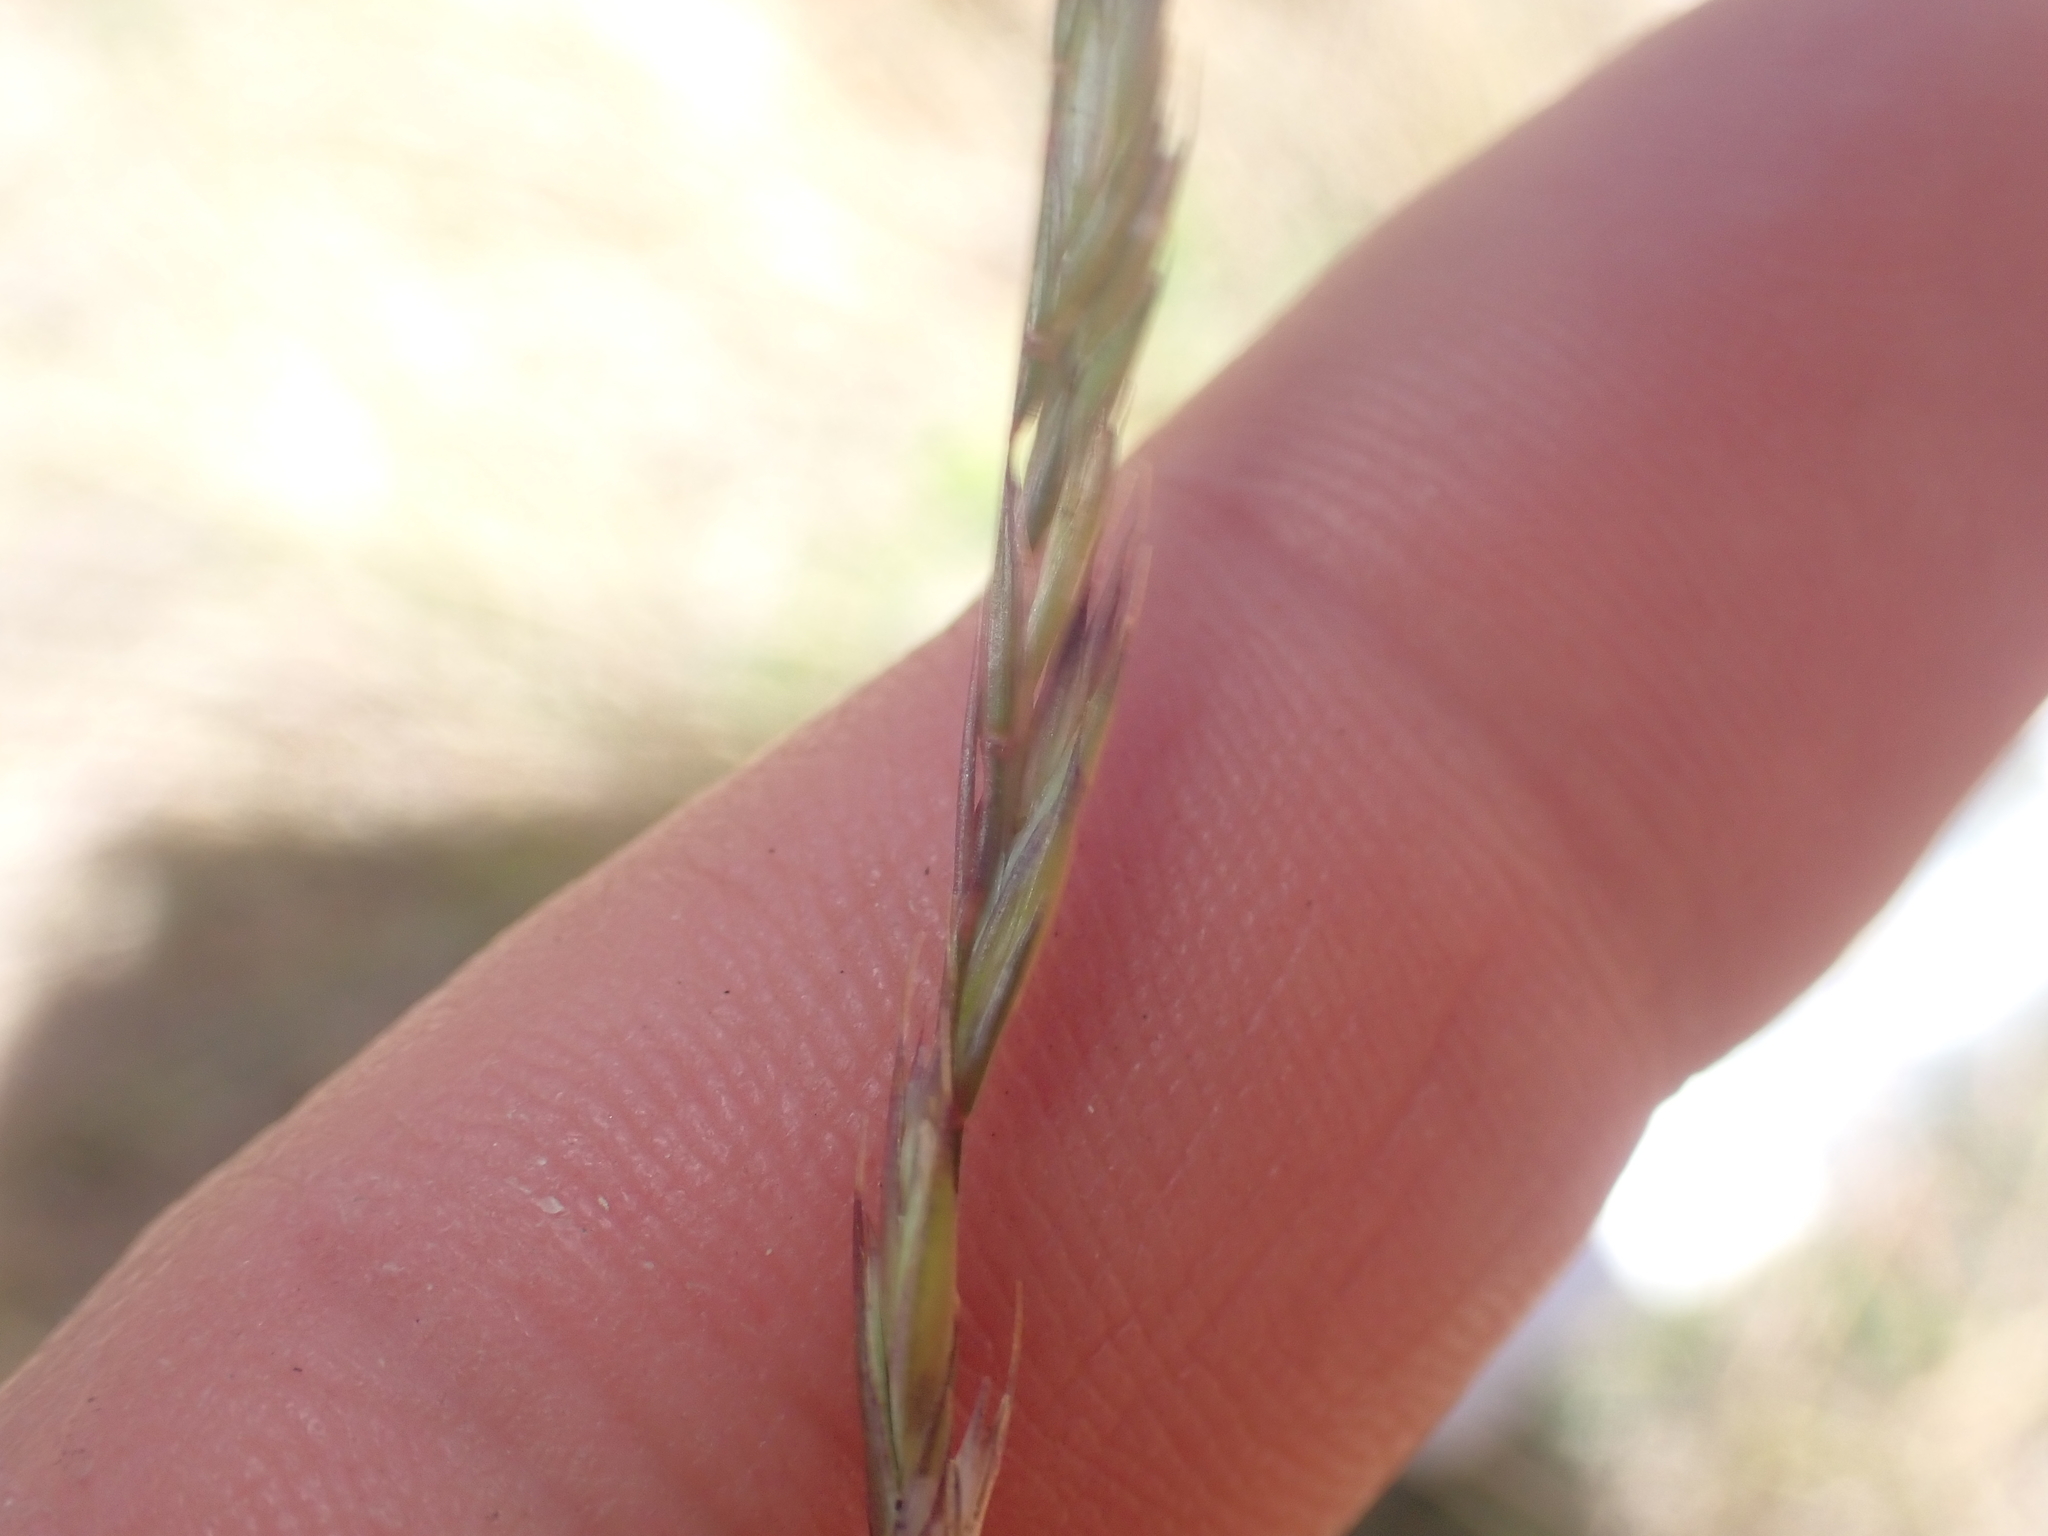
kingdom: Plantae
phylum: Tracheophyta
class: Liliopsida
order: Poales
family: Poaceae
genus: Festuca
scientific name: Festuca rubra
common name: Red fescue
